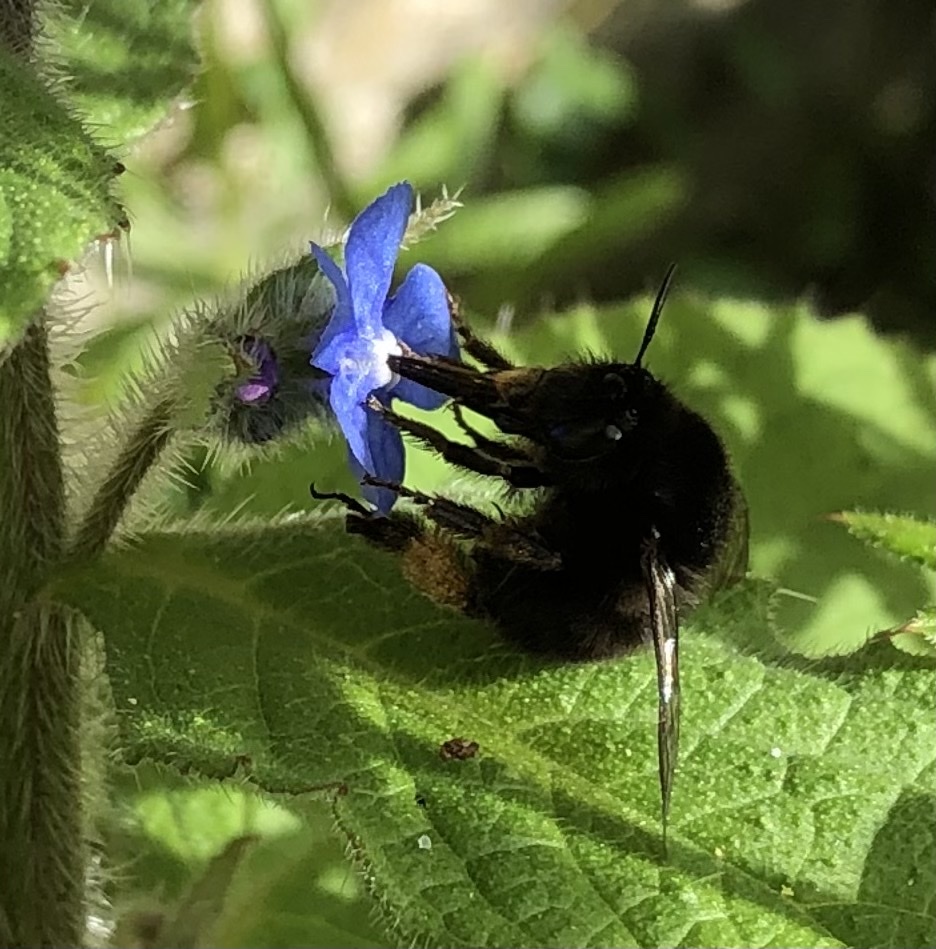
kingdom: Animalia
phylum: Arthropoda
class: Insecta
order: Hymenoptera
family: Apidae
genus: Anthophora
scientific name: Anthophora plumipes
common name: Hairy-footed flower bee
